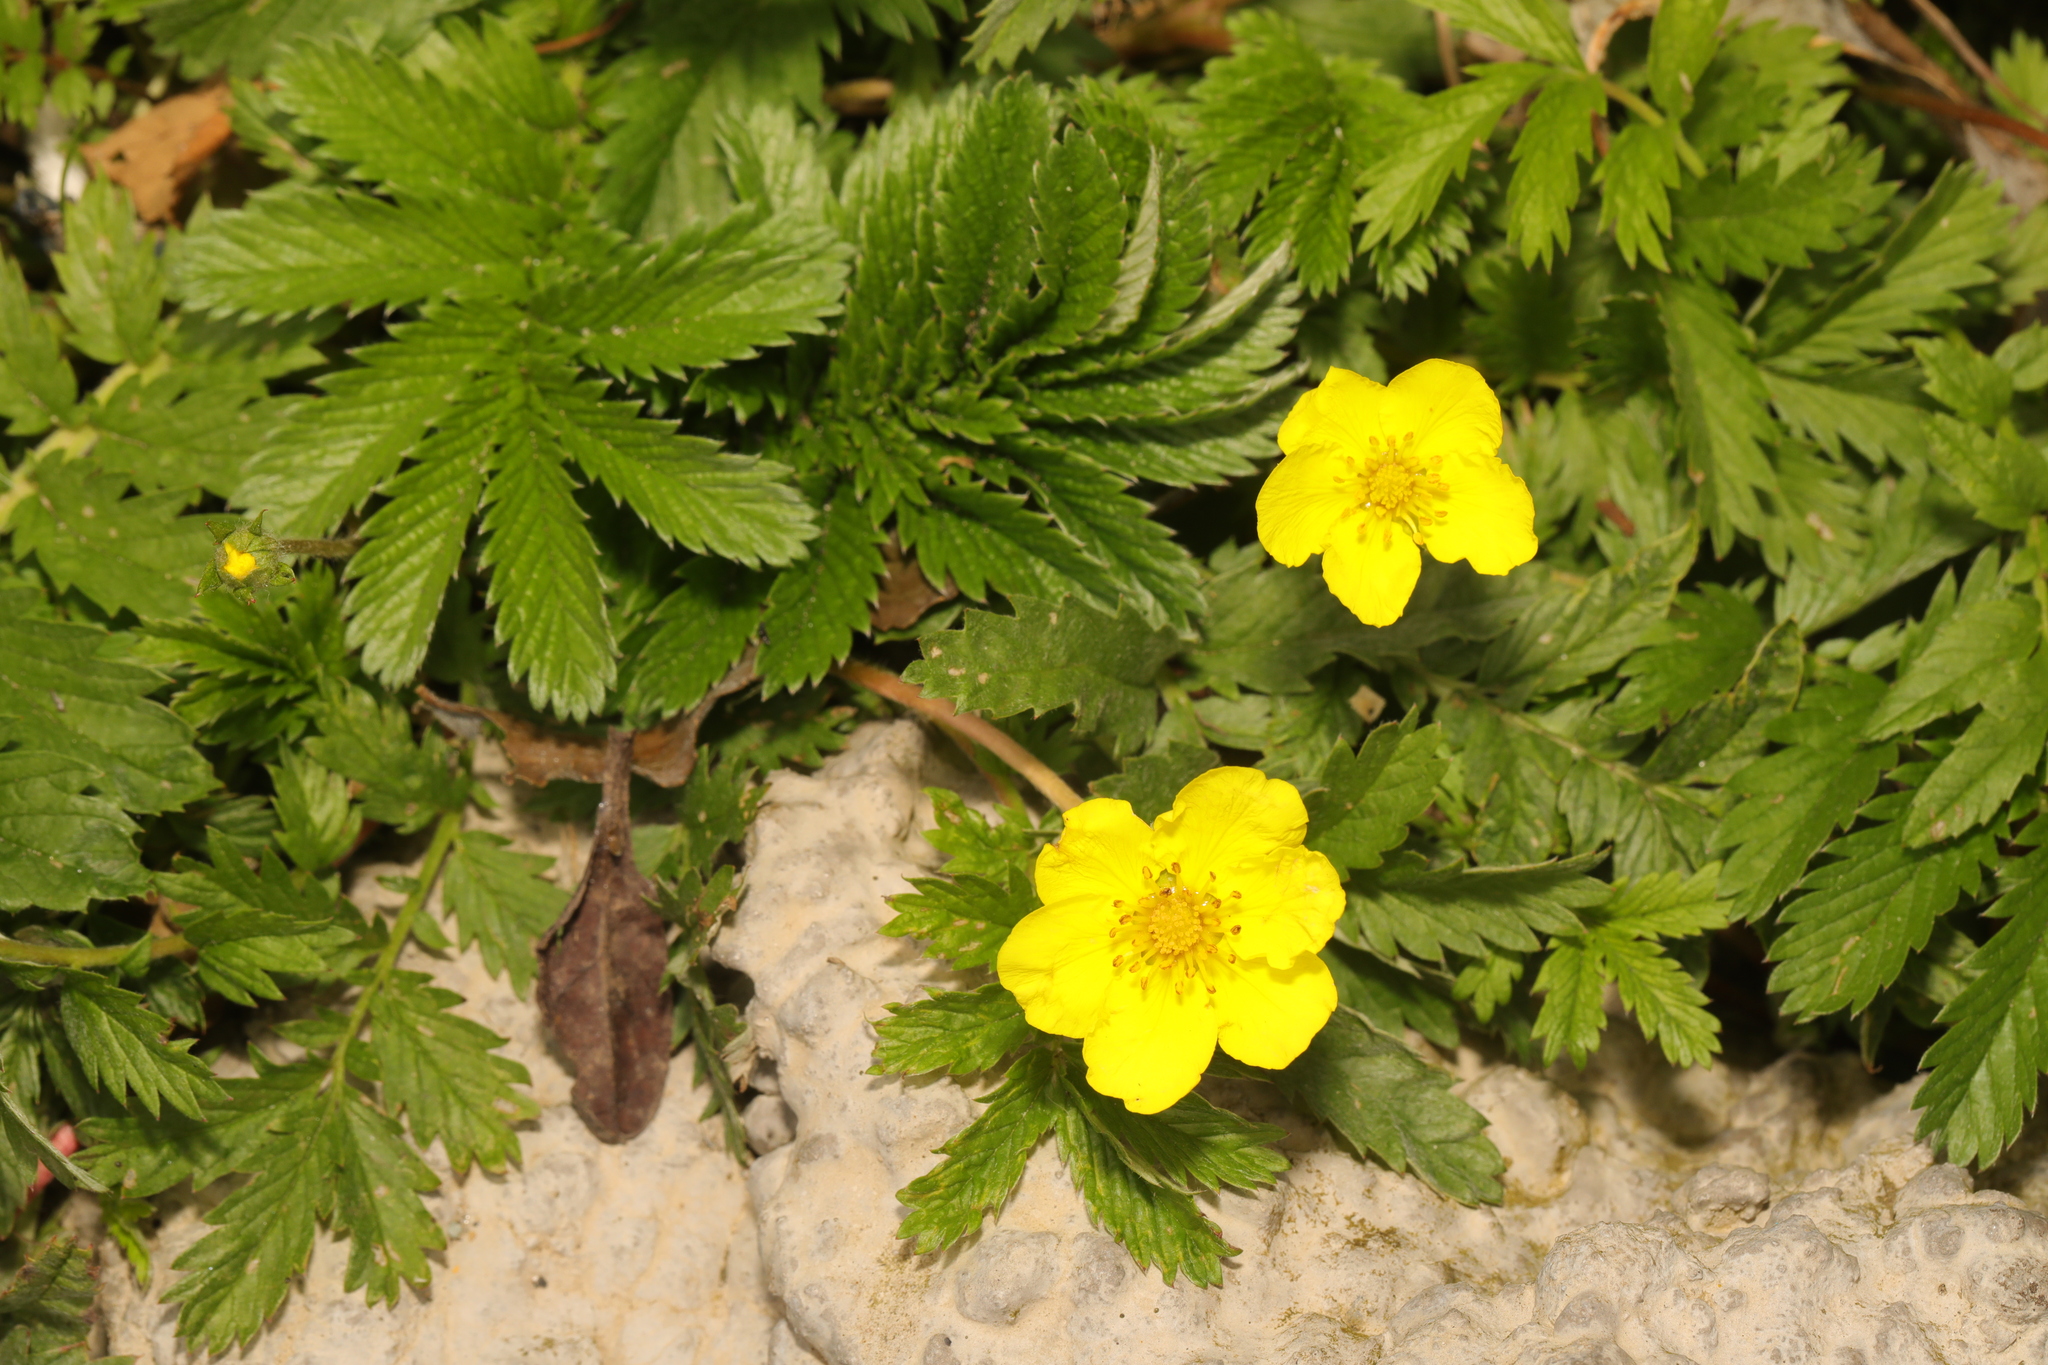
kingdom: Plantae
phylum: Tracheophyta
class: Magnoliopsida
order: Rosales
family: Rosaceae
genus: Argentina
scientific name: Argentina anserina
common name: Common silverweed
